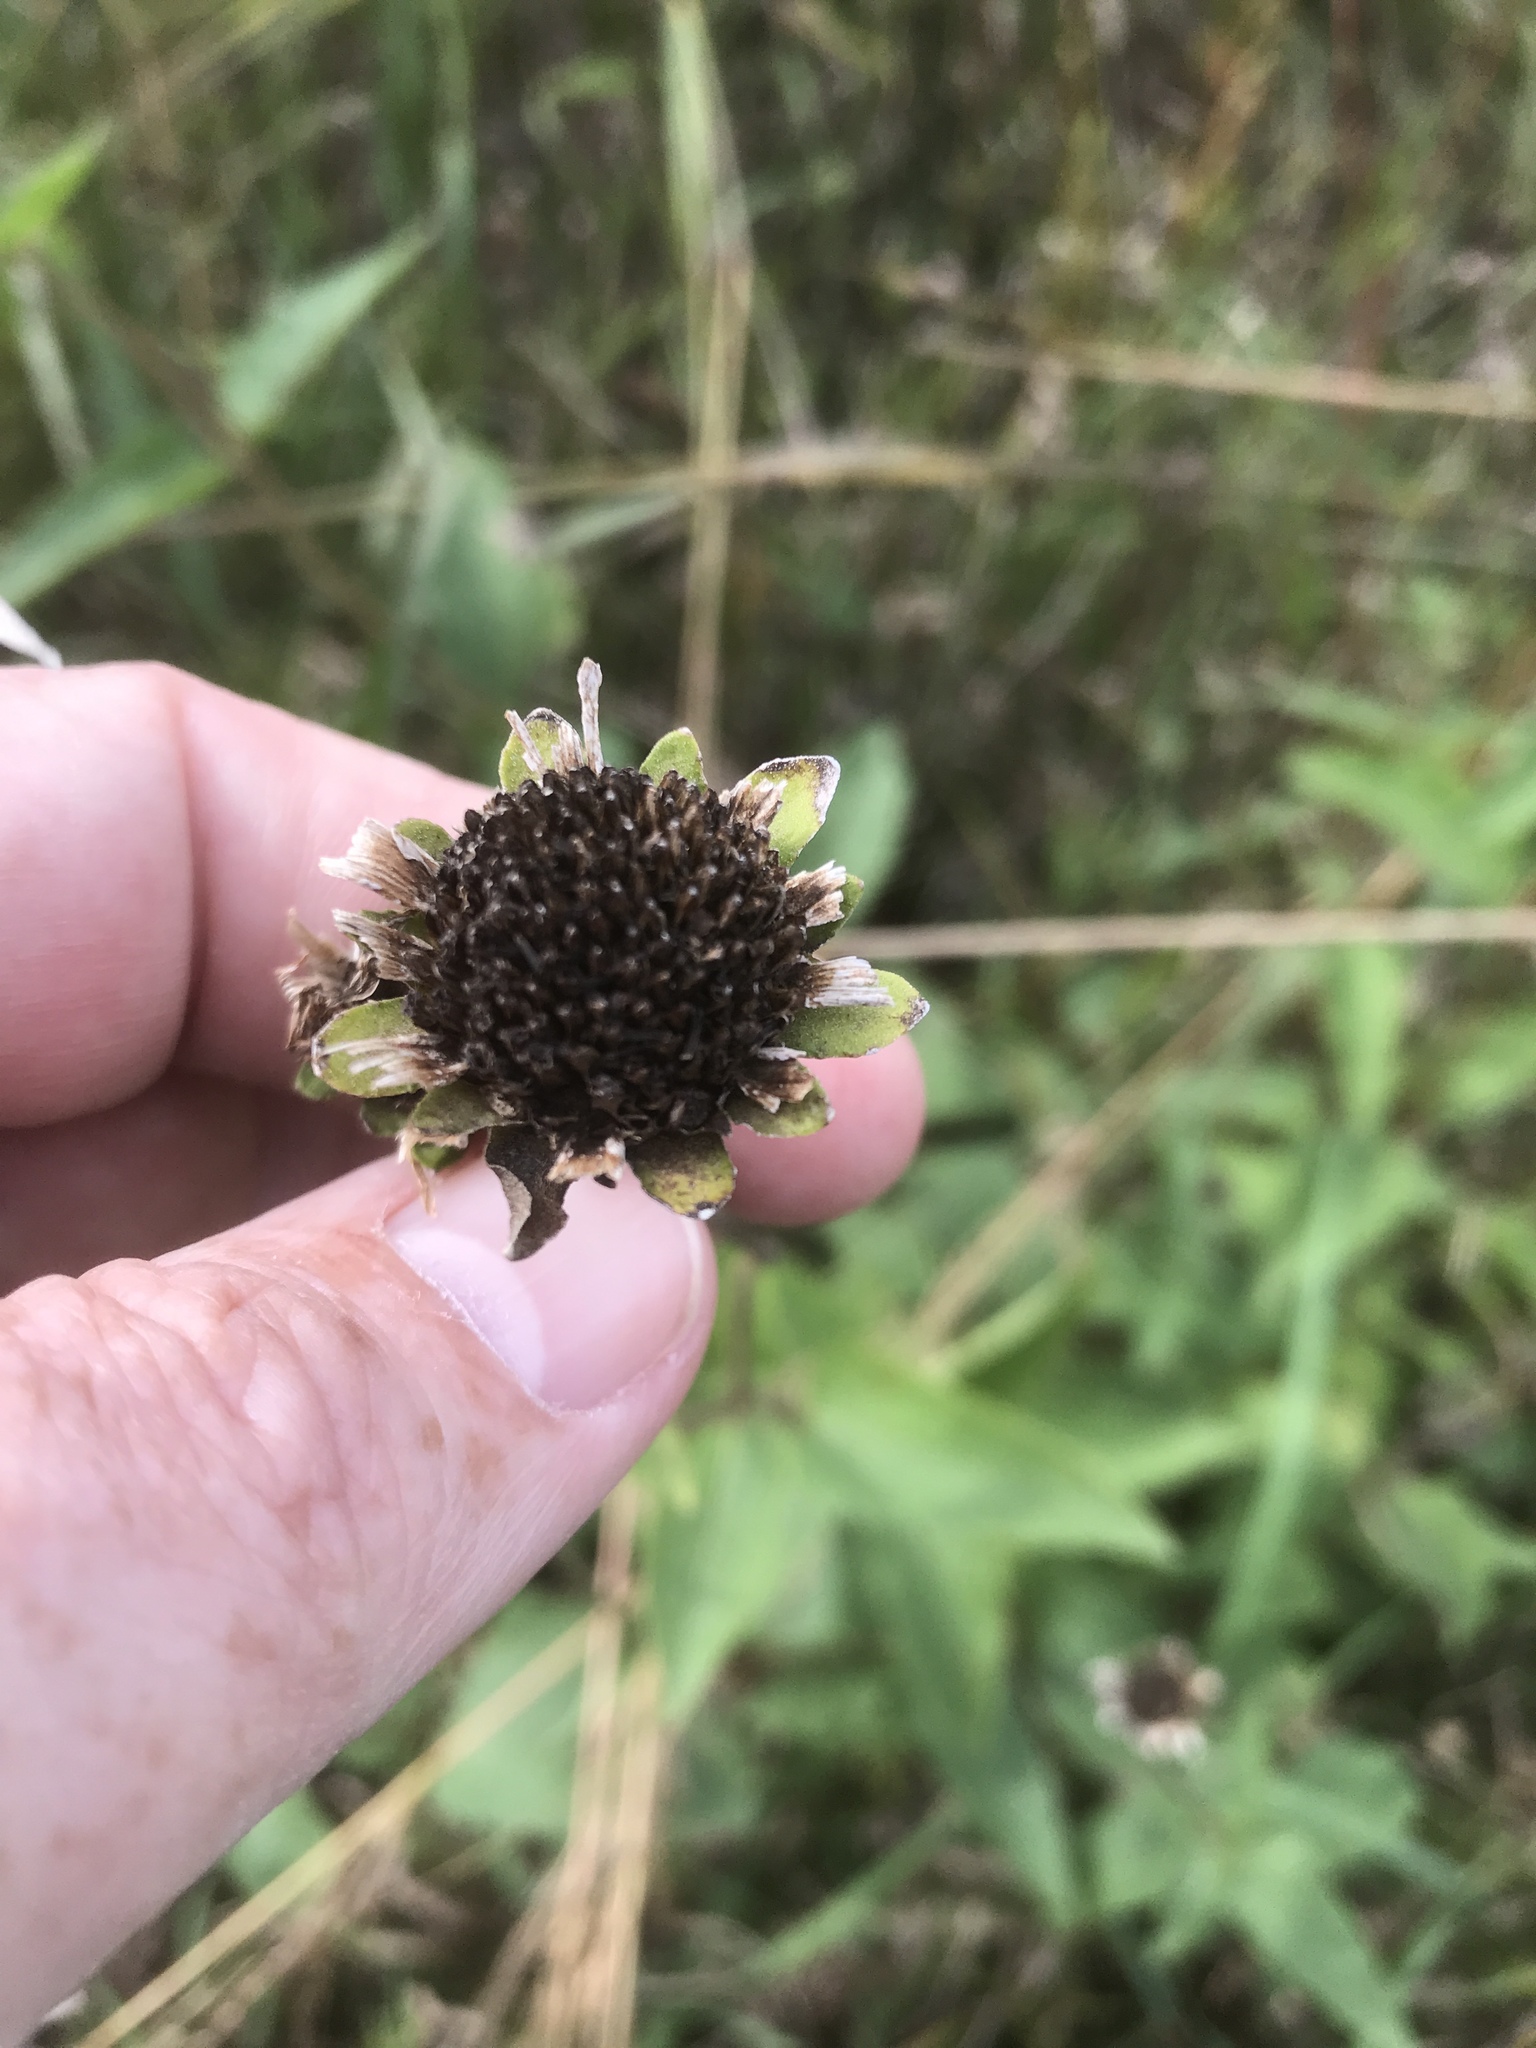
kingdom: Plantae
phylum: Tracheophyta
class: Magnoliopsida
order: Asterales
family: Asteraceae
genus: Heliopsis
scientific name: Heliopsis helianthoides
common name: False sunflower
